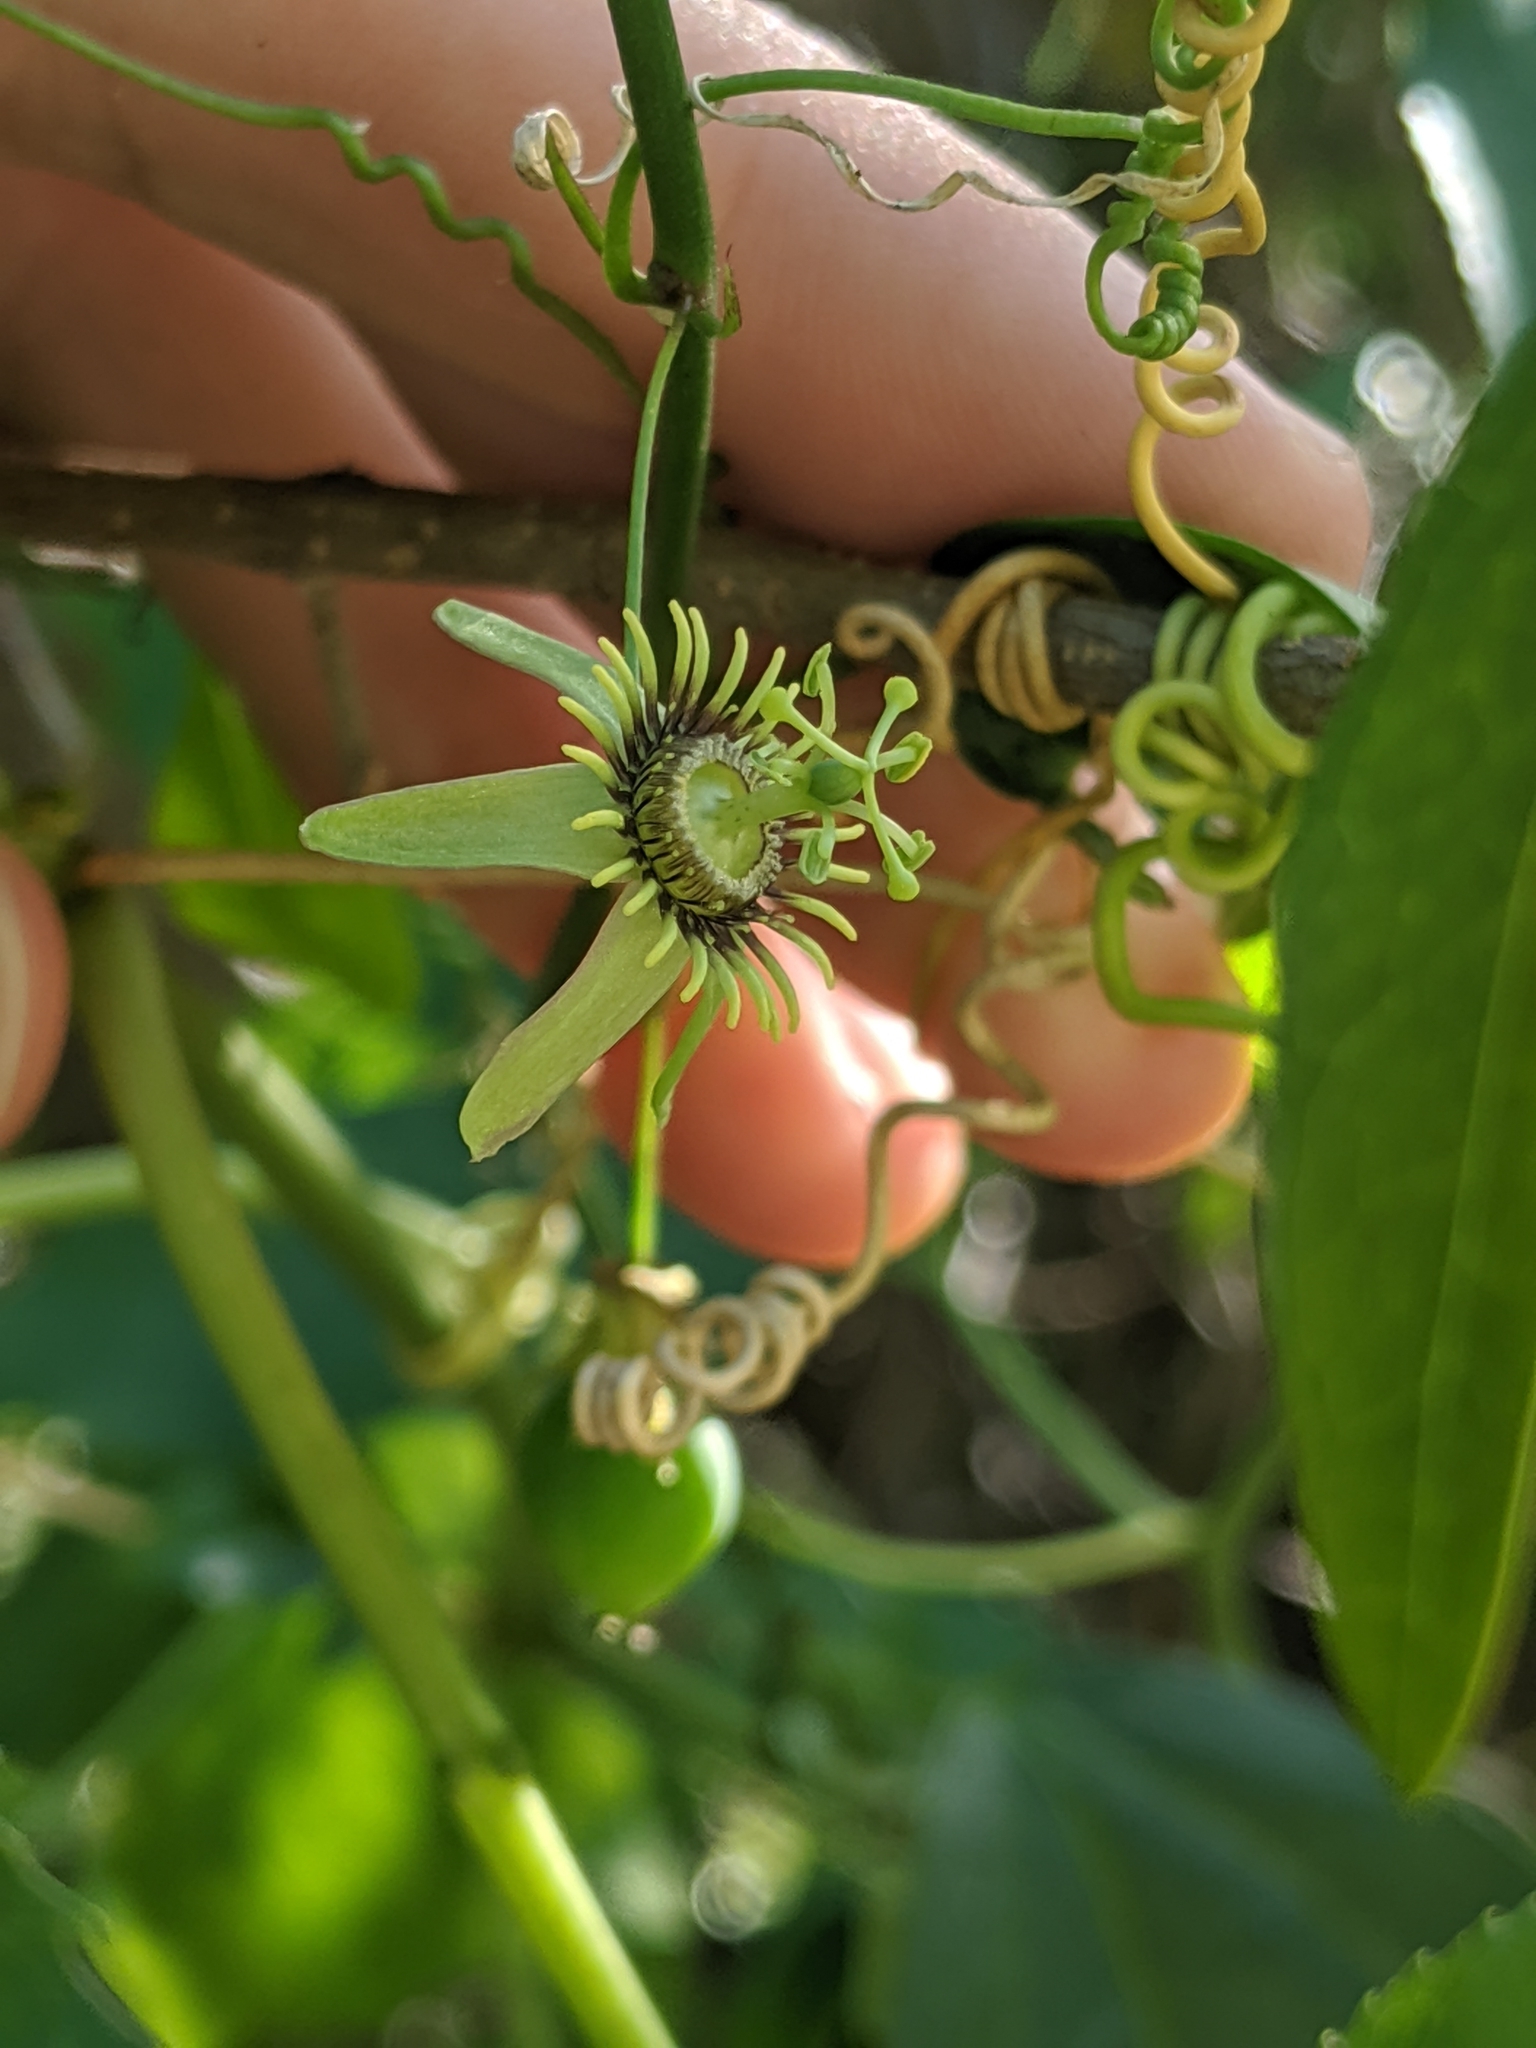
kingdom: Plantae
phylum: Tracheophyta
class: Magnoliopsida
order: Malpighiales
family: Passifloraceae
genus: Passiflora
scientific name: Passiflora pallida
